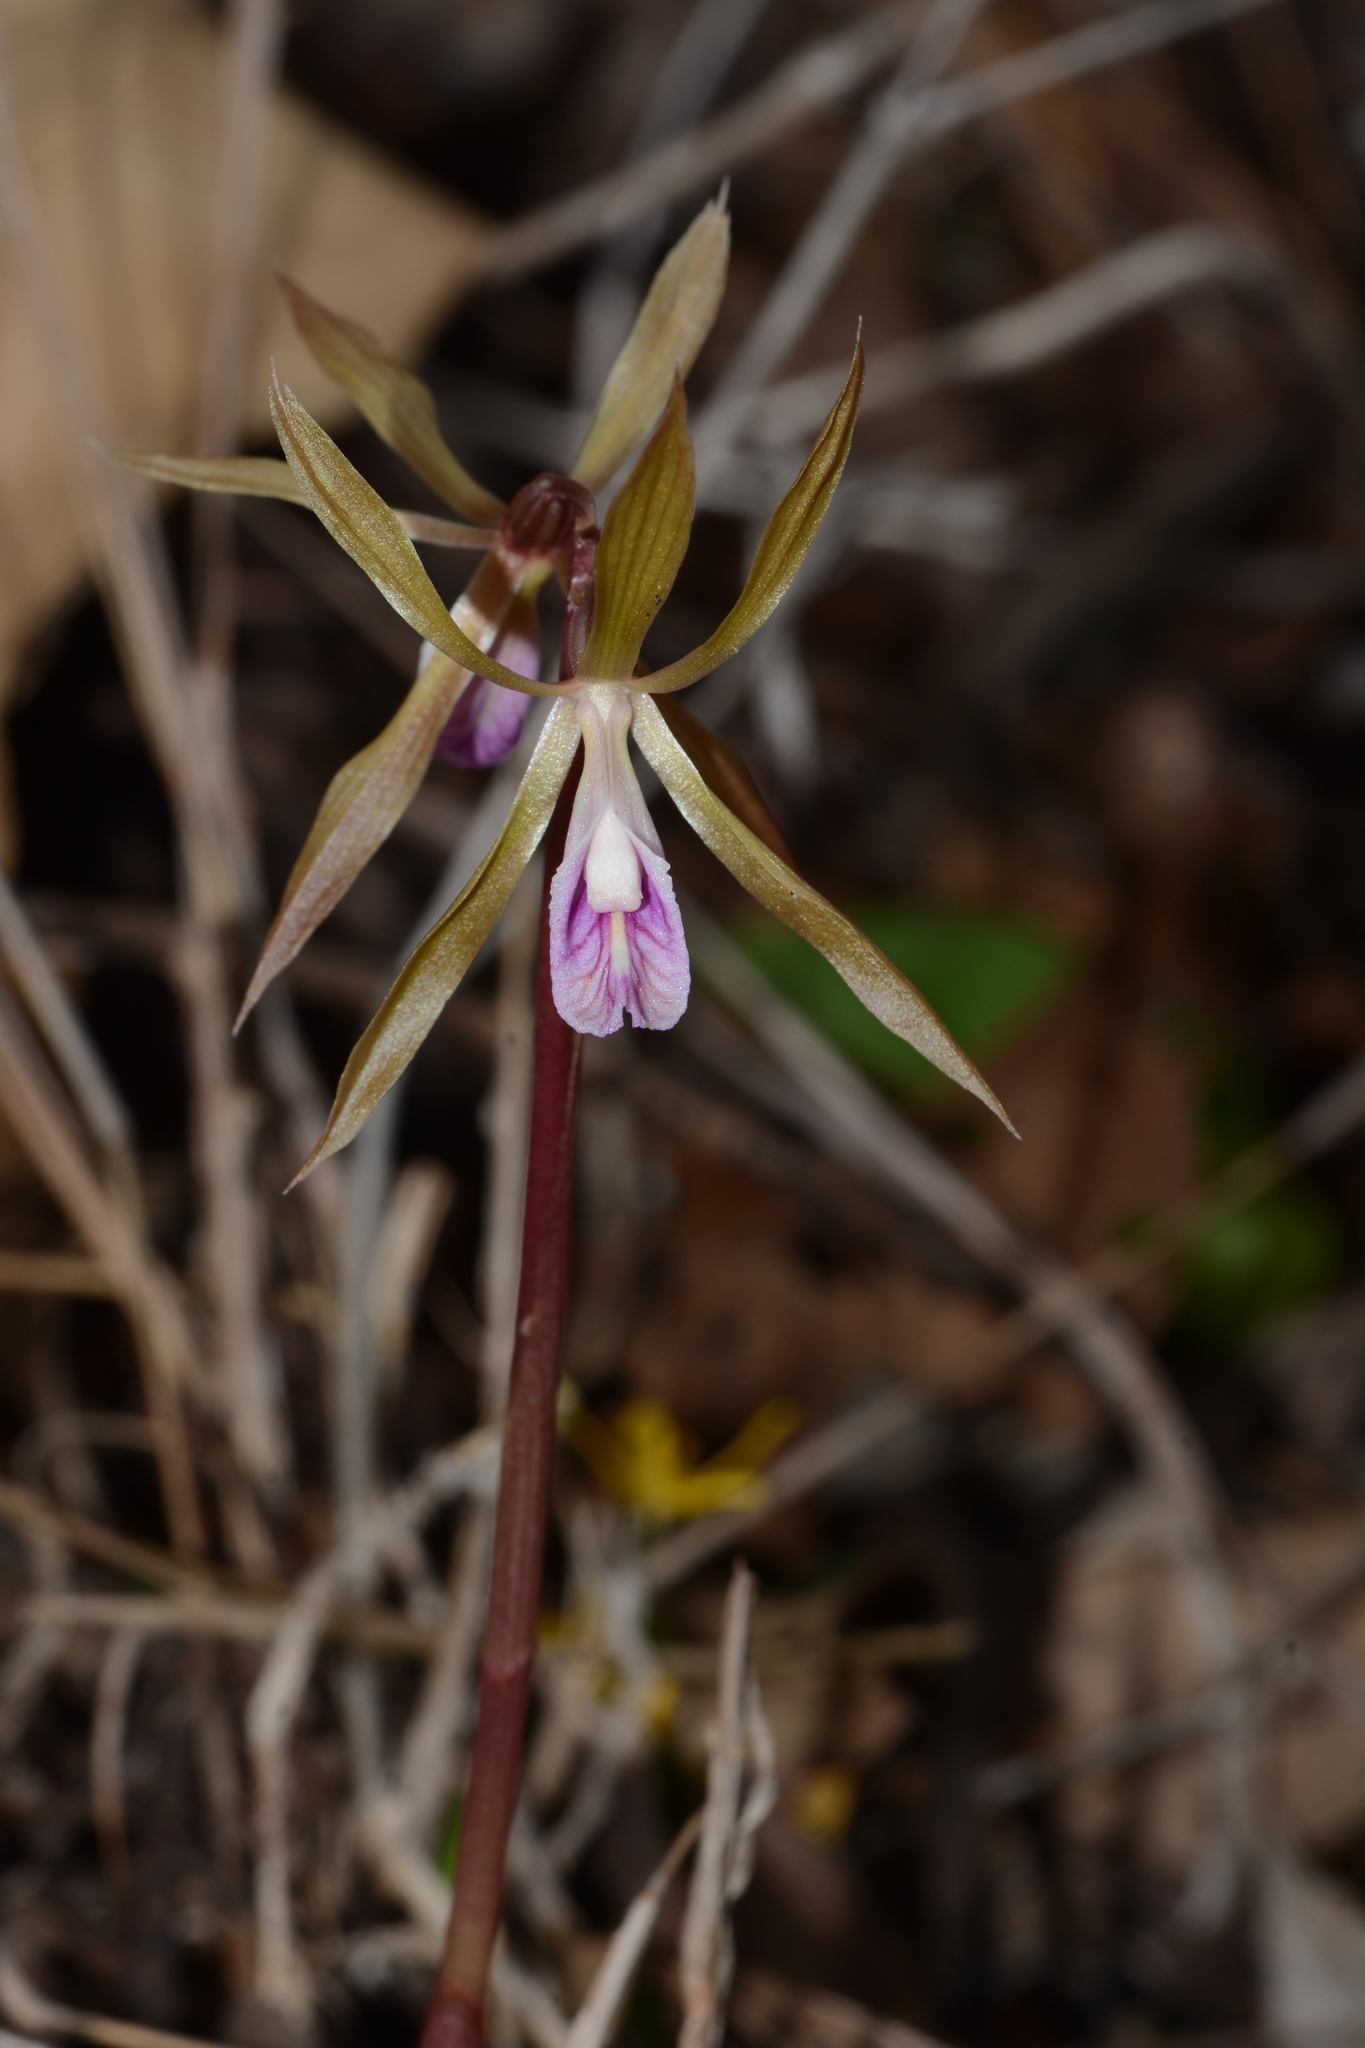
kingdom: Plantae
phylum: Tracheophyta
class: Liliopsida
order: Asparagales
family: Orchidaceae
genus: Nervilia
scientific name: Nervilia plicata
